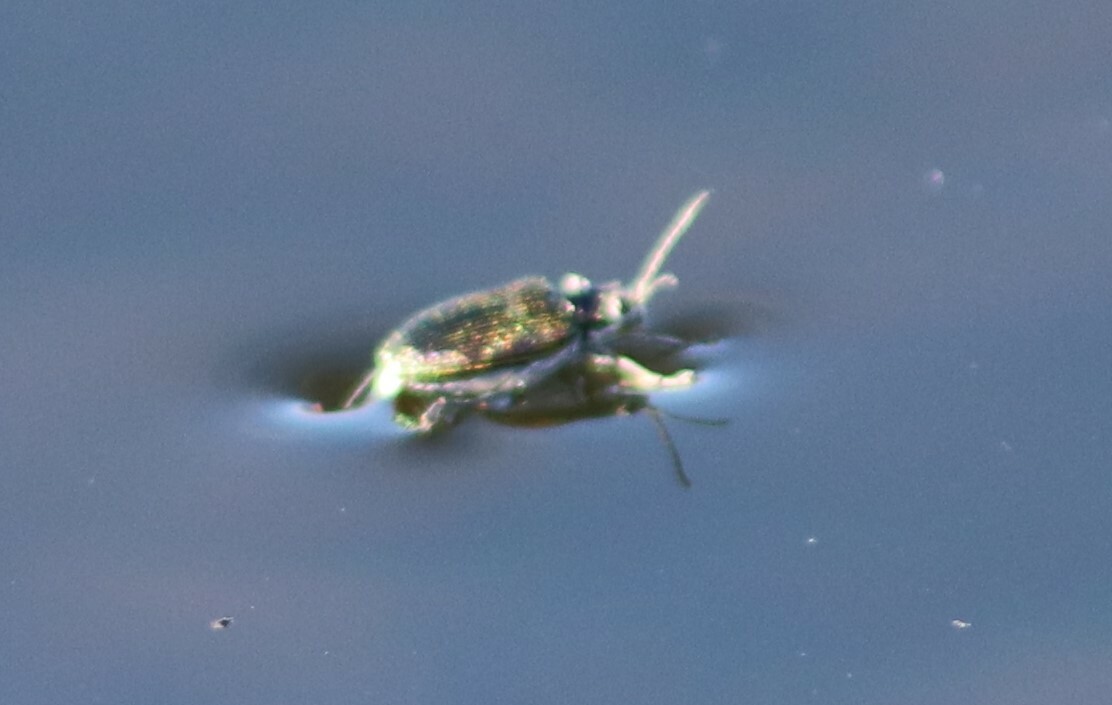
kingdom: Animalia
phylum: Arthropoda
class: Insecta
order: Coleoptera
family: Chrysomelidae
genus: Donacia
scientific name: Donacia
